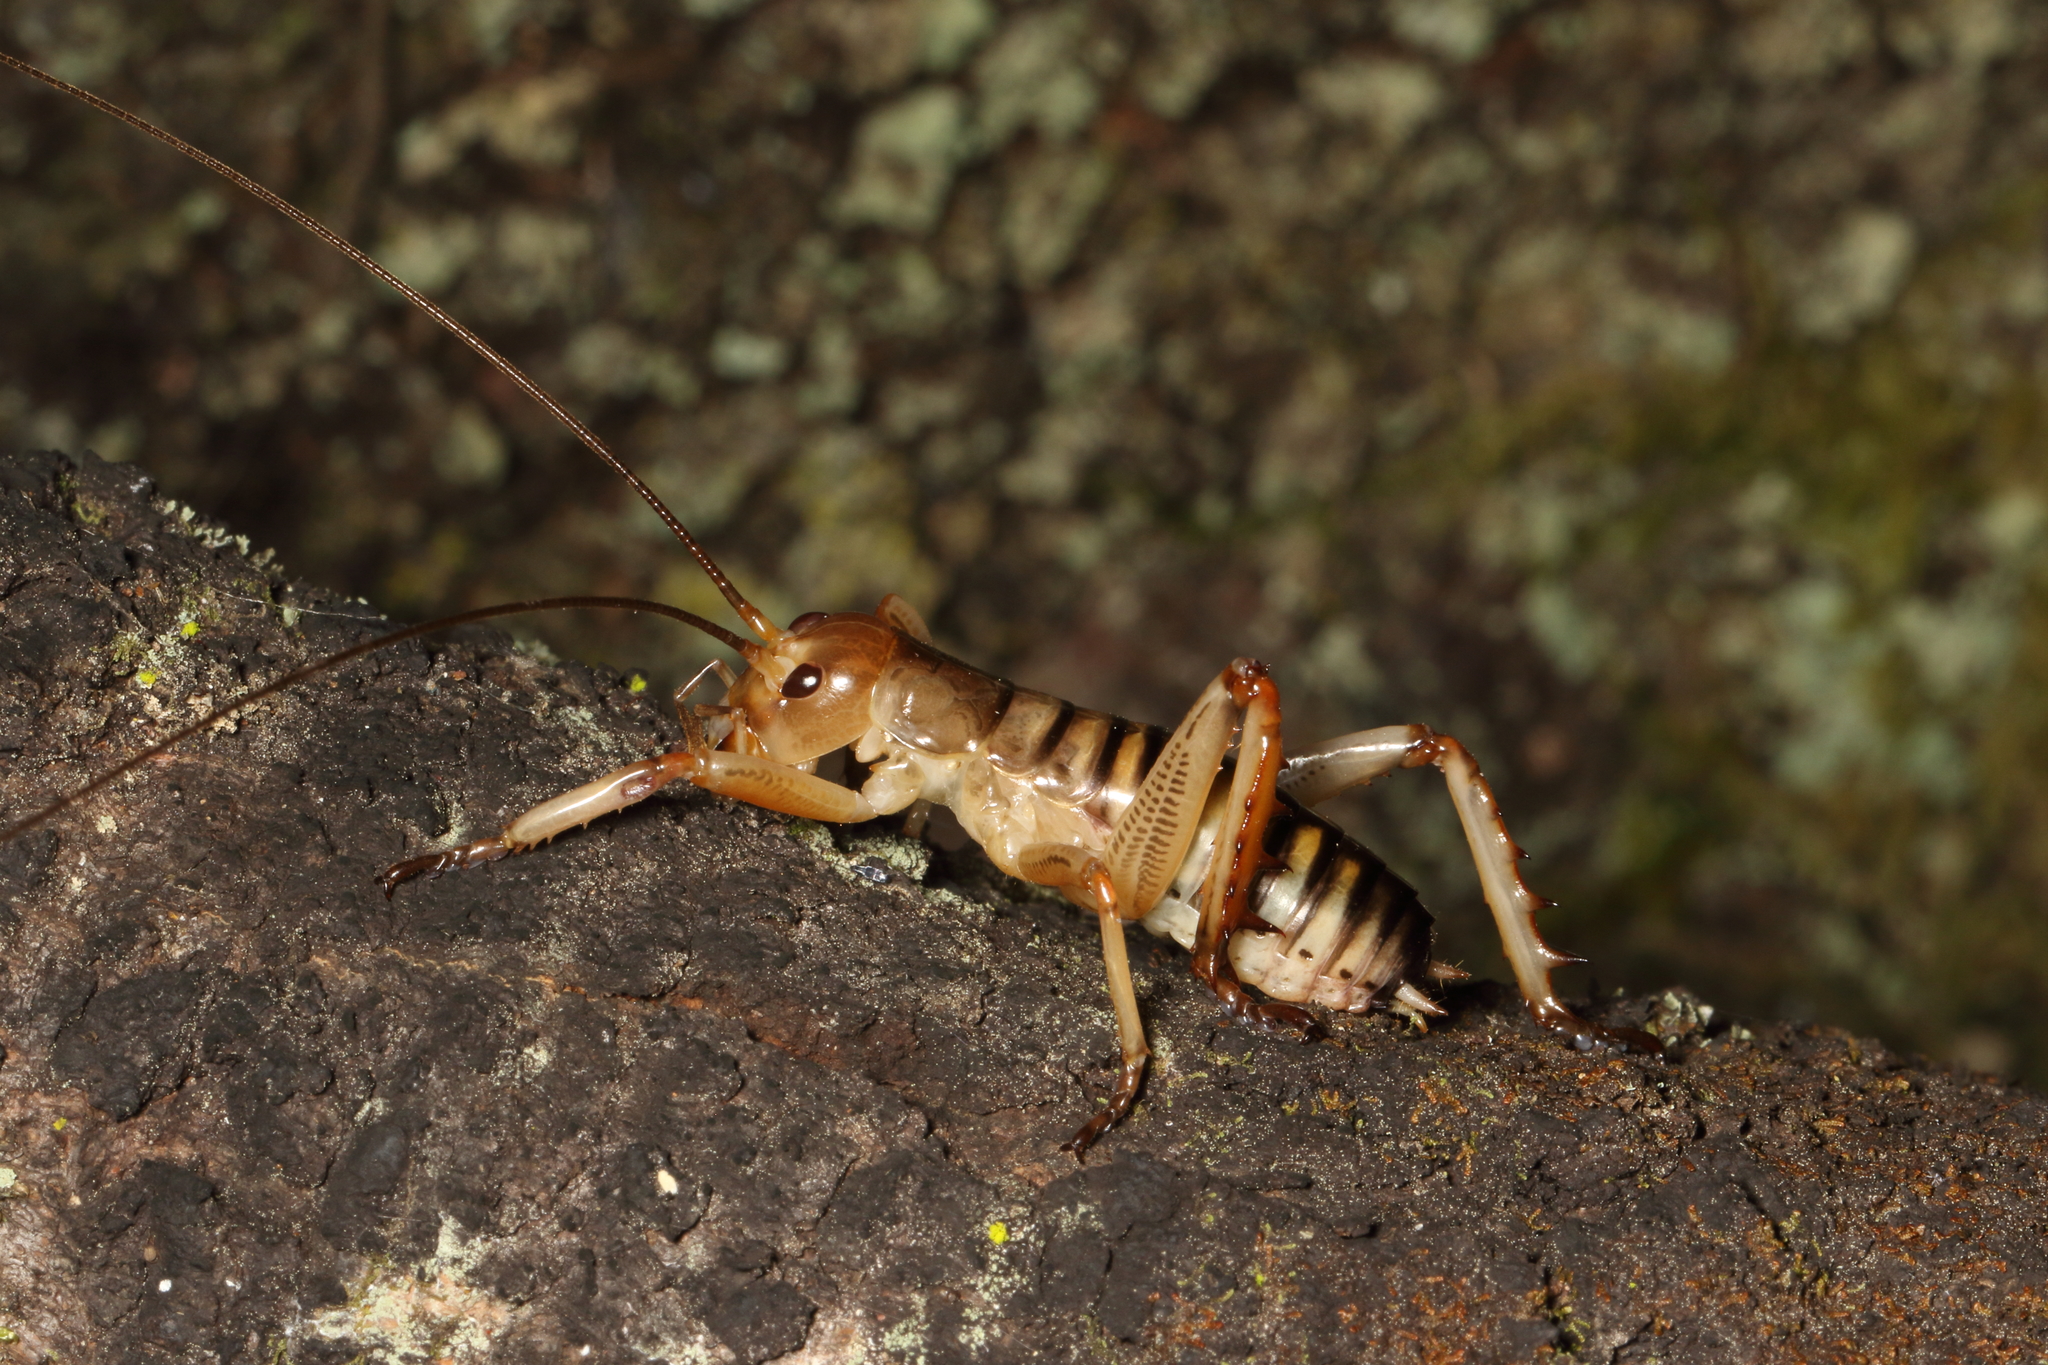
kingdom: Animalia
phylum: Arthropoda
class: Insecta
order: Orthoptera
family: Anostostomatidae
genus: Hemideina
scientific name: Hemideina crassidens
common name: Wellington tree weta
